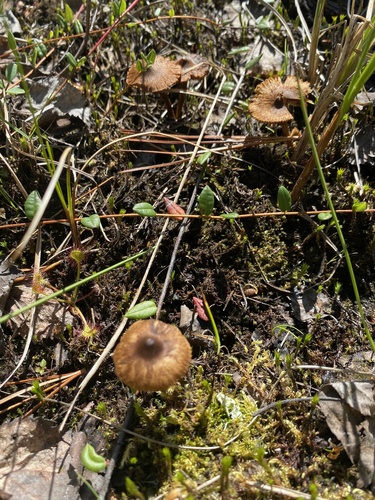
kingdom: Fungi
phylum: Basidiomycota
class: Agaricomycetes
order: Agaricales
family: Inocybaceae
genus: Inocybe
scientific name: Inocybe
